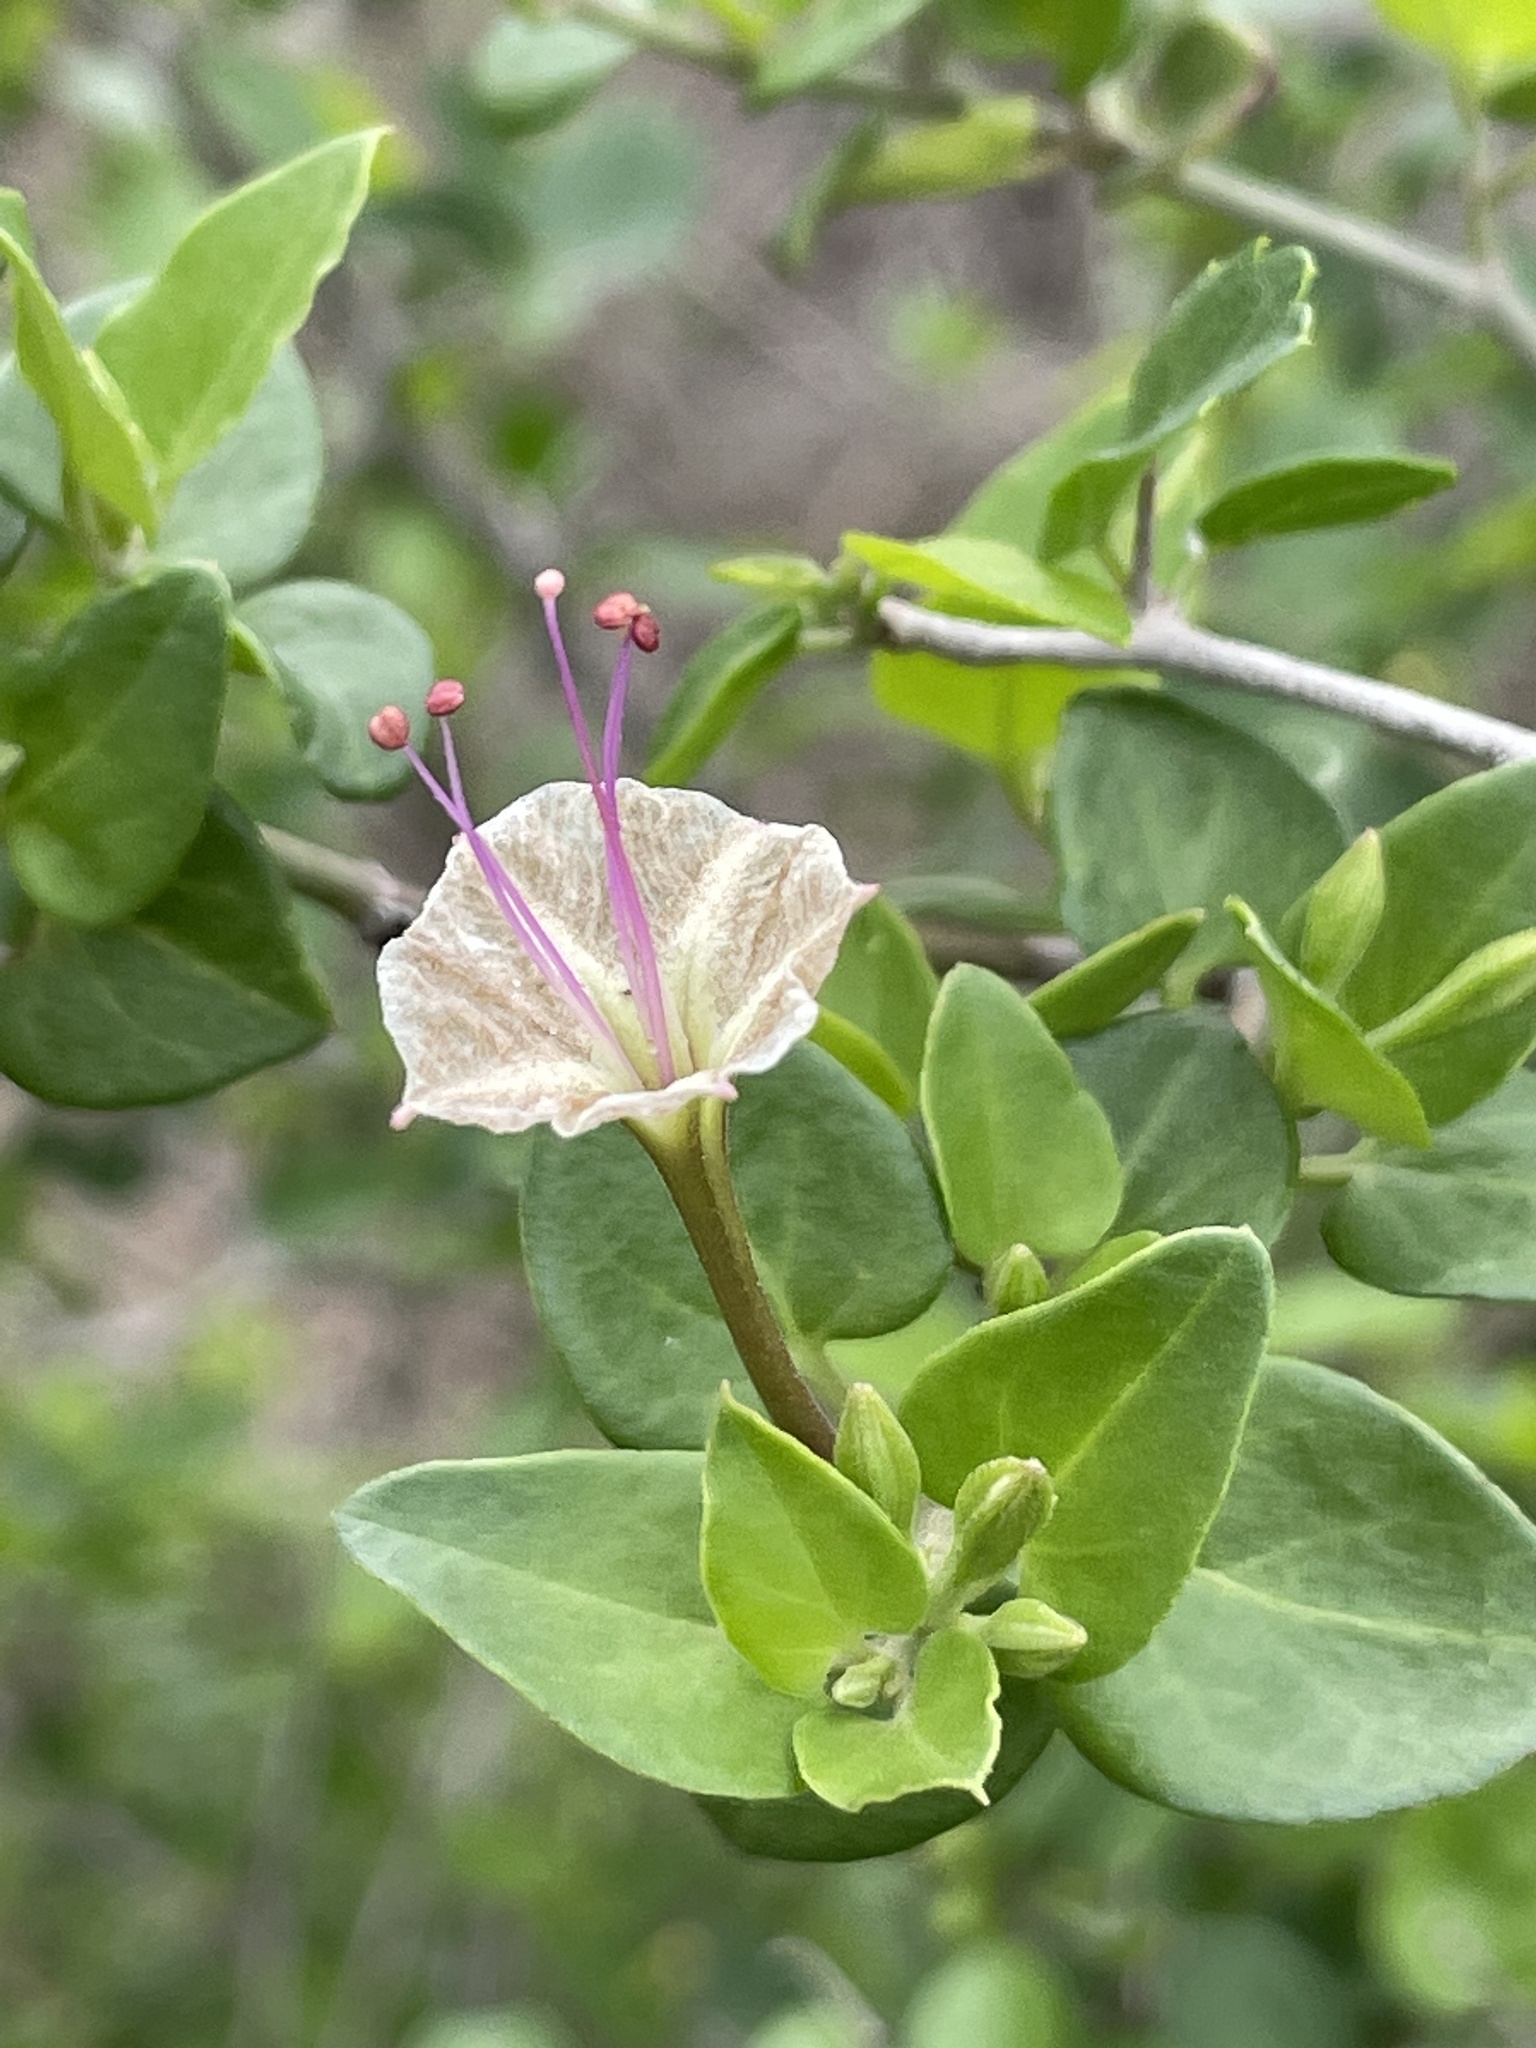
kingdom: Plantae
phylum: Tracheophyta
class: Magnoliopsida
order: Caryophyllales
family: Nyctaginaceae
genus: Acleisanthes
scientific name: Acleisanthes obtusa
